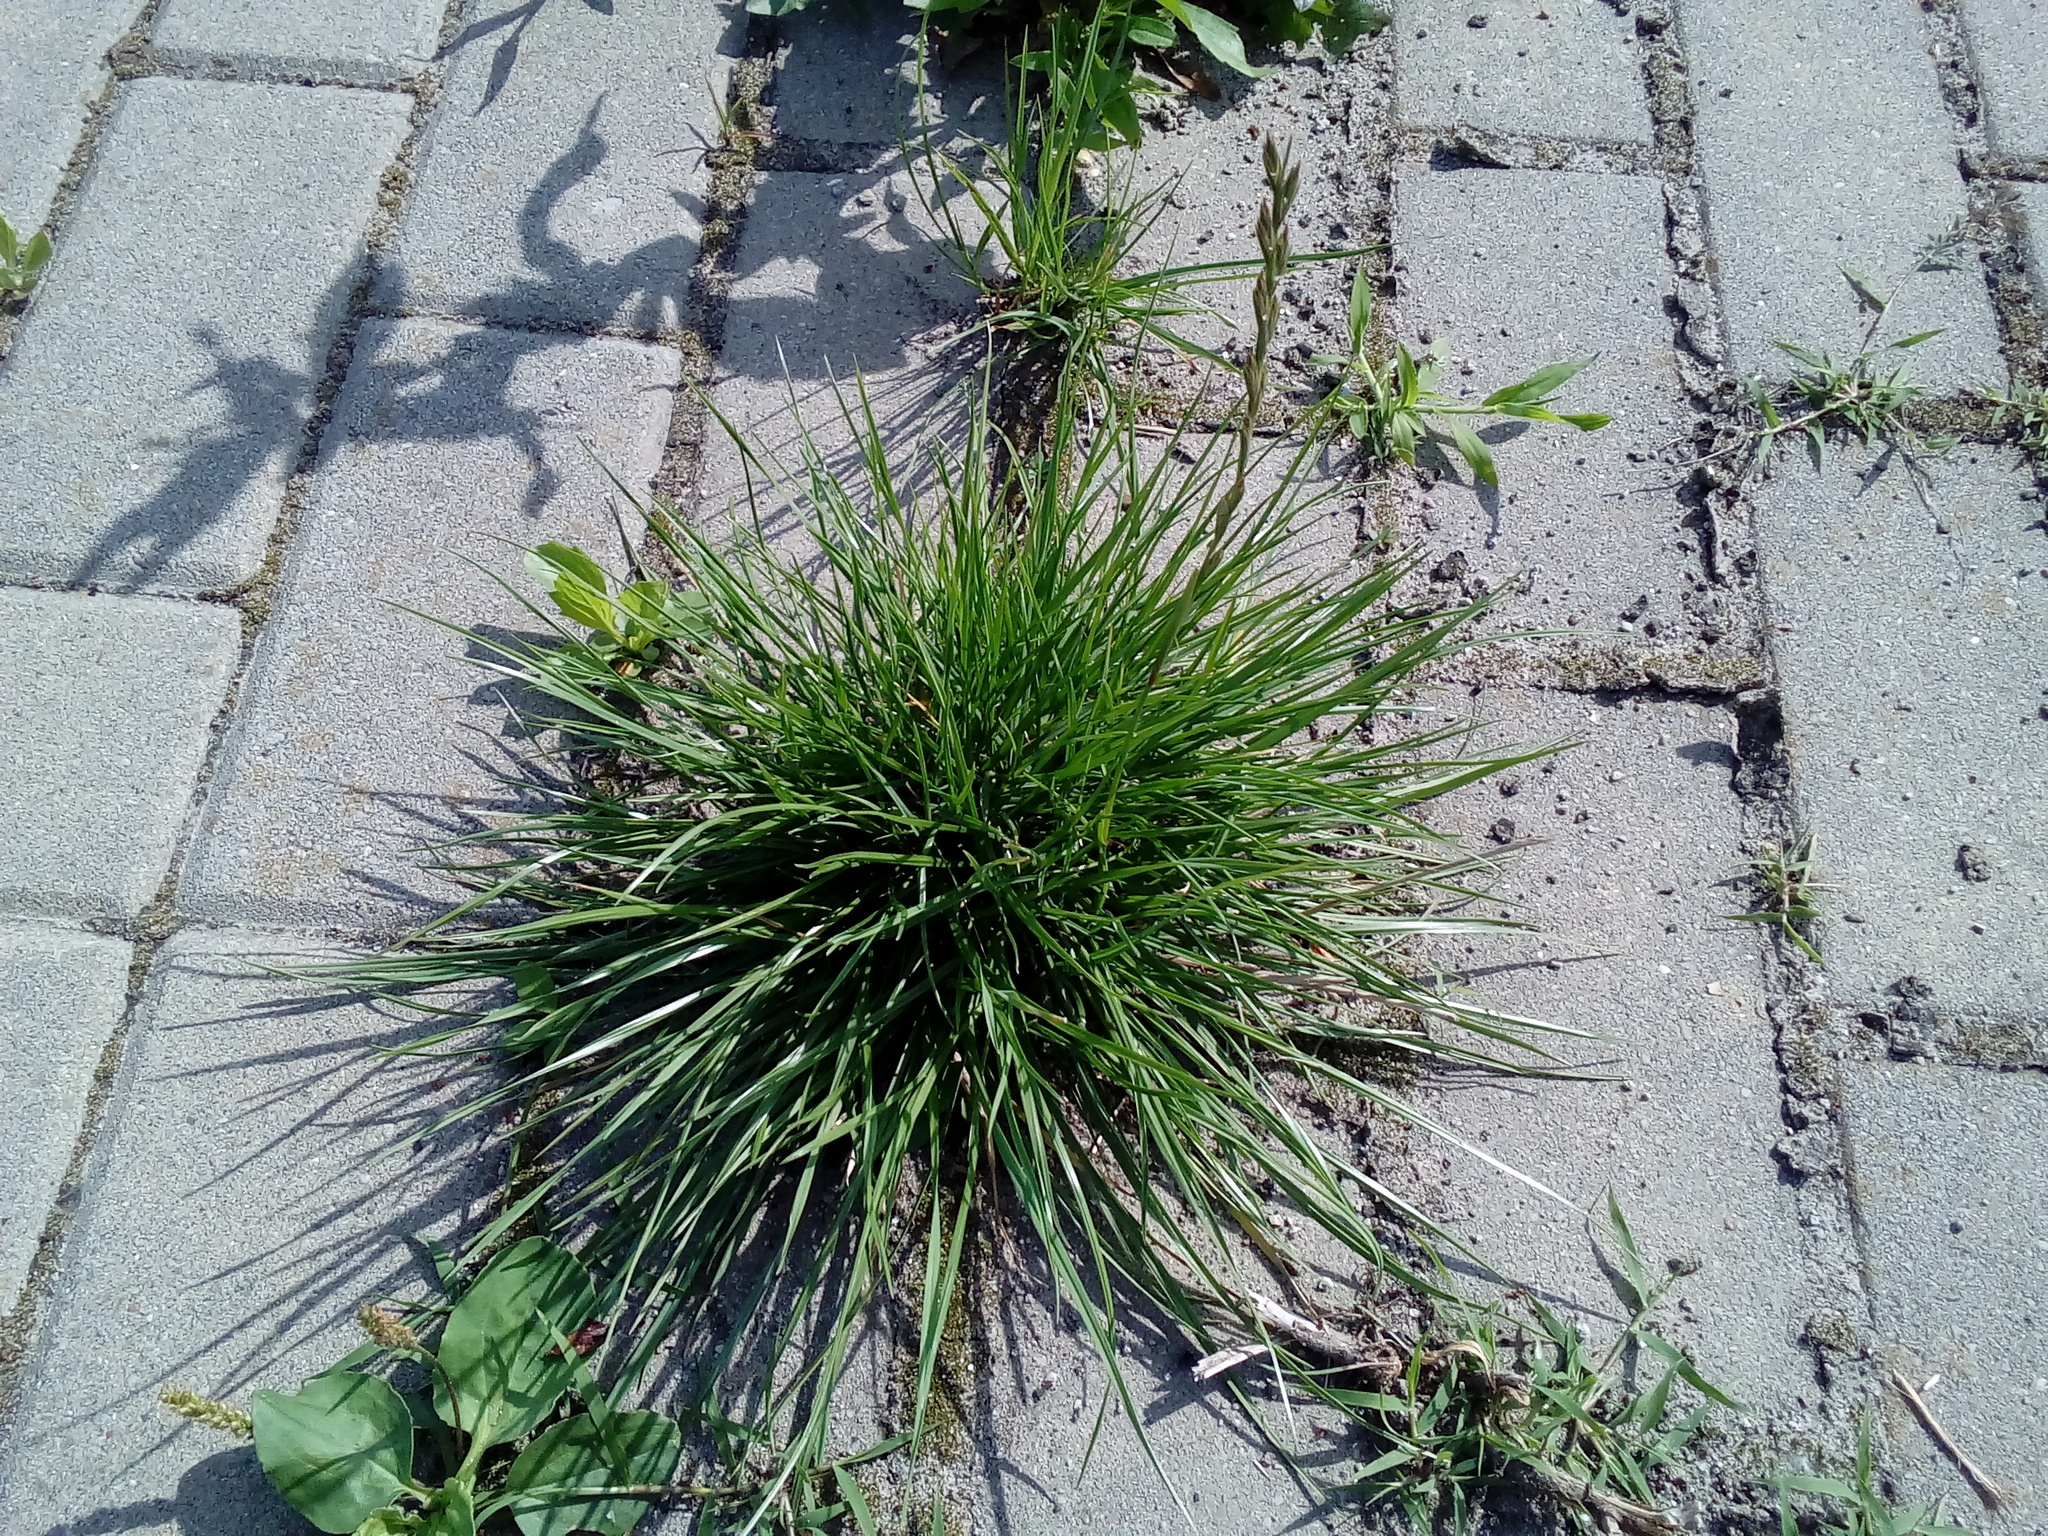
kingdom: Plantae
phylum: Tracheophyta
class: Liliopsida
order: Poales
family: Poaceae
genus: Lolium
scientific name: Lolium perenne
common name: Perennial ryegrass
